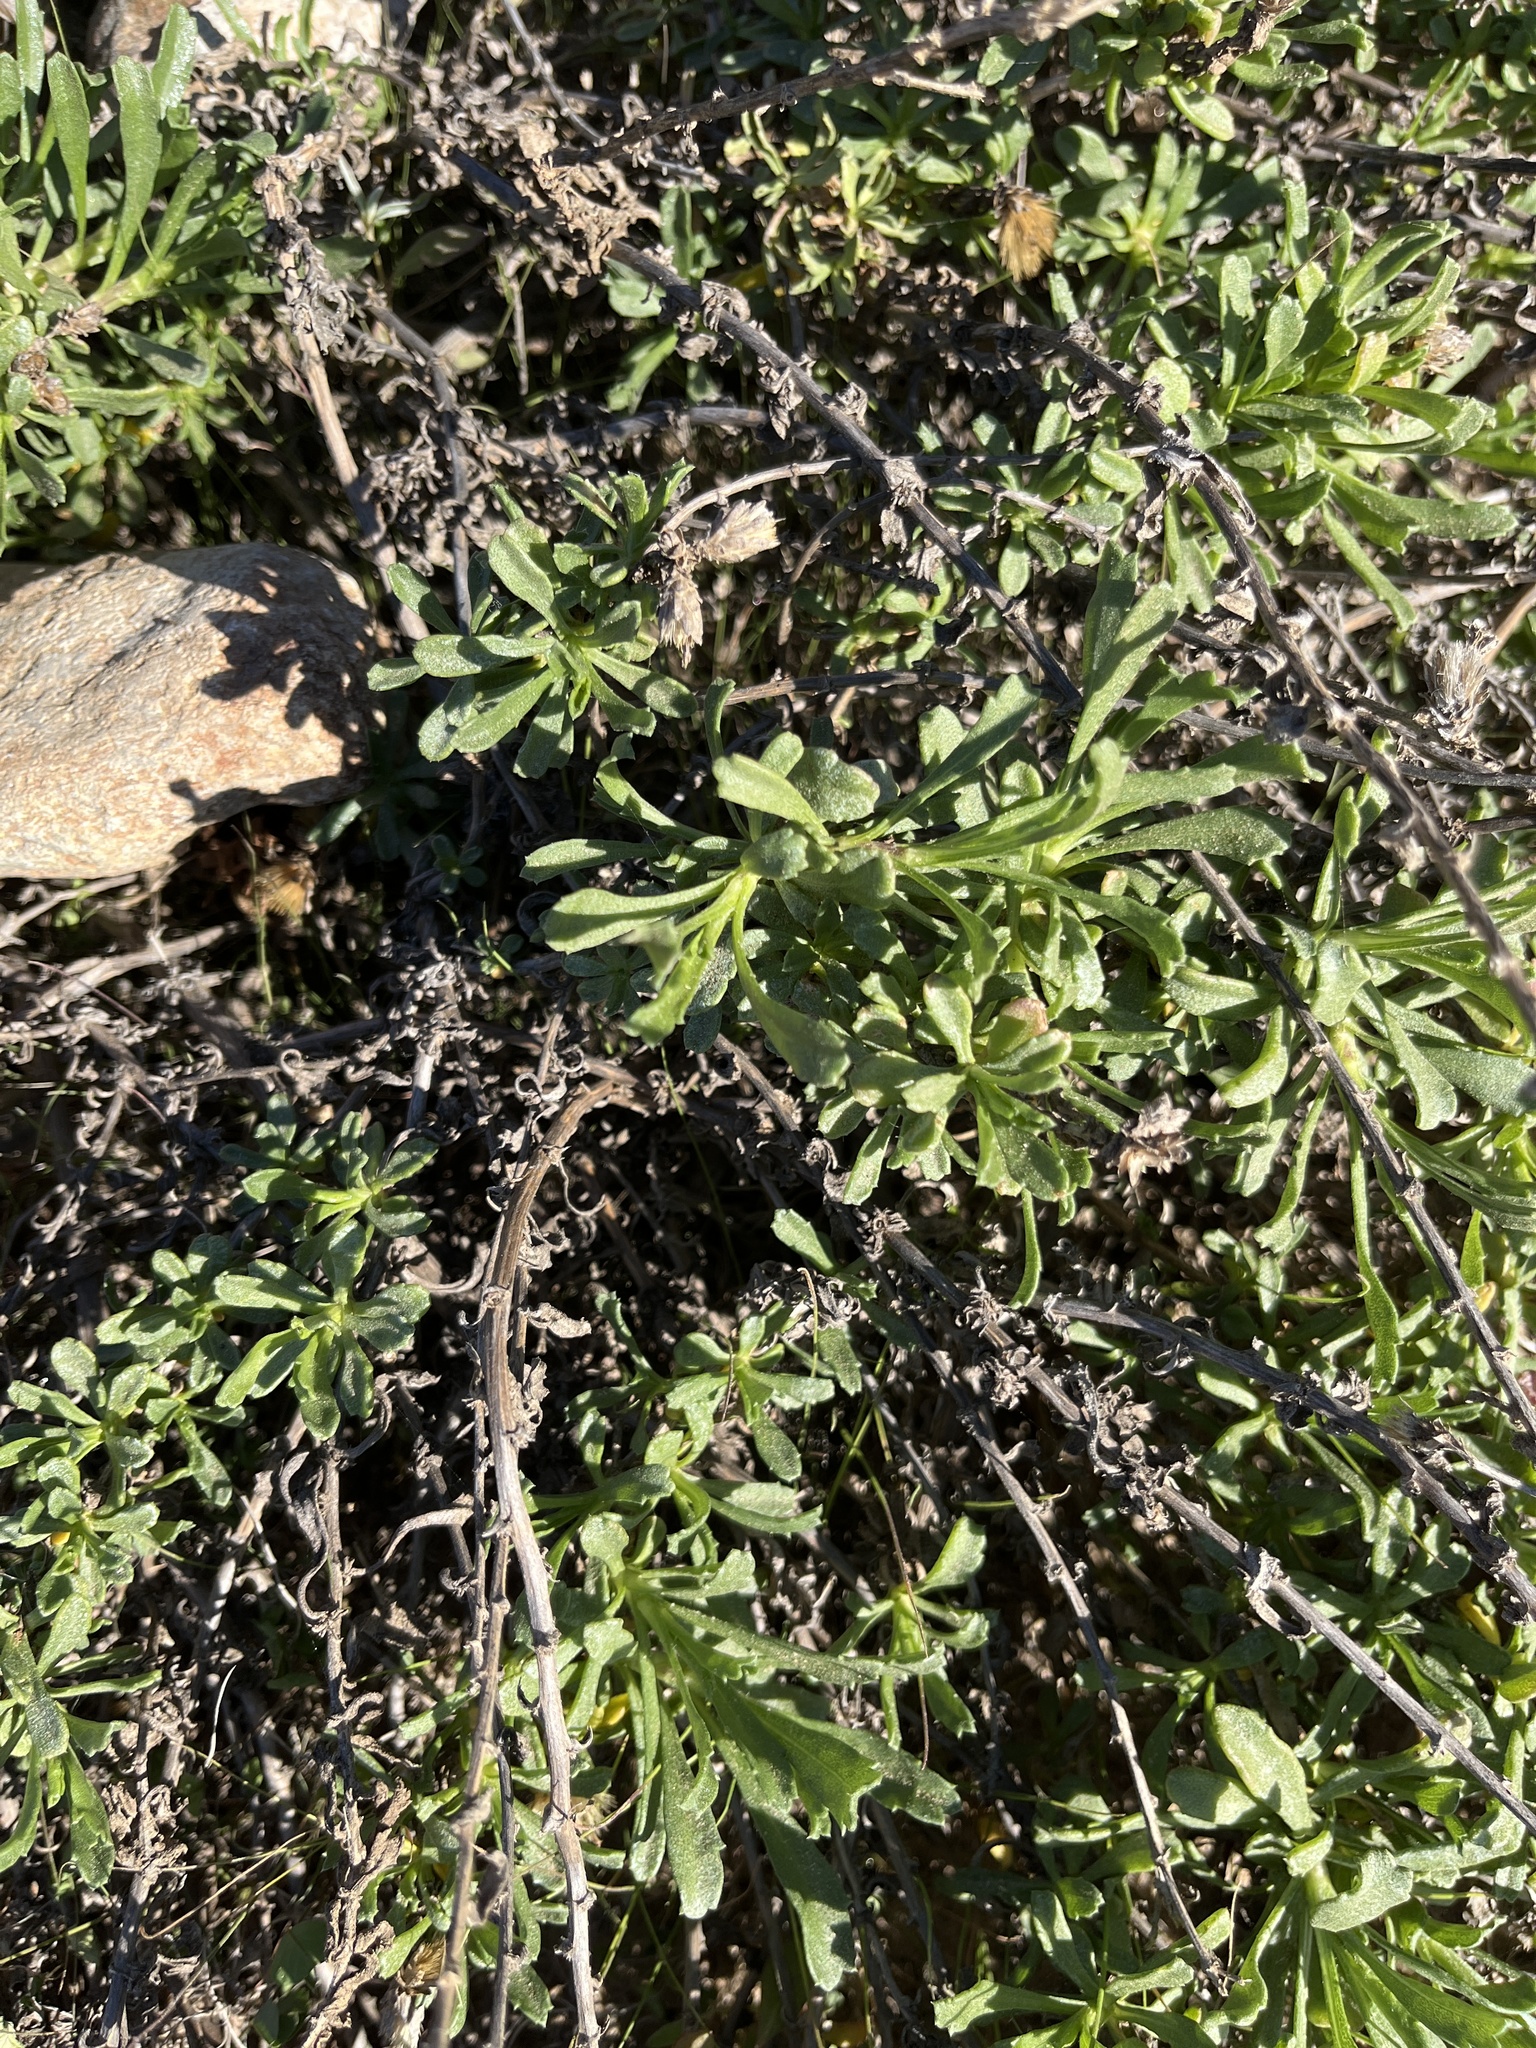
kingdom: Plantae
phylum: Tracheophyta
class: Magnoliopsida
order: Asterales
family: Asteraceae
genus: Isocoma
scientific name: Isocoma menziesii
